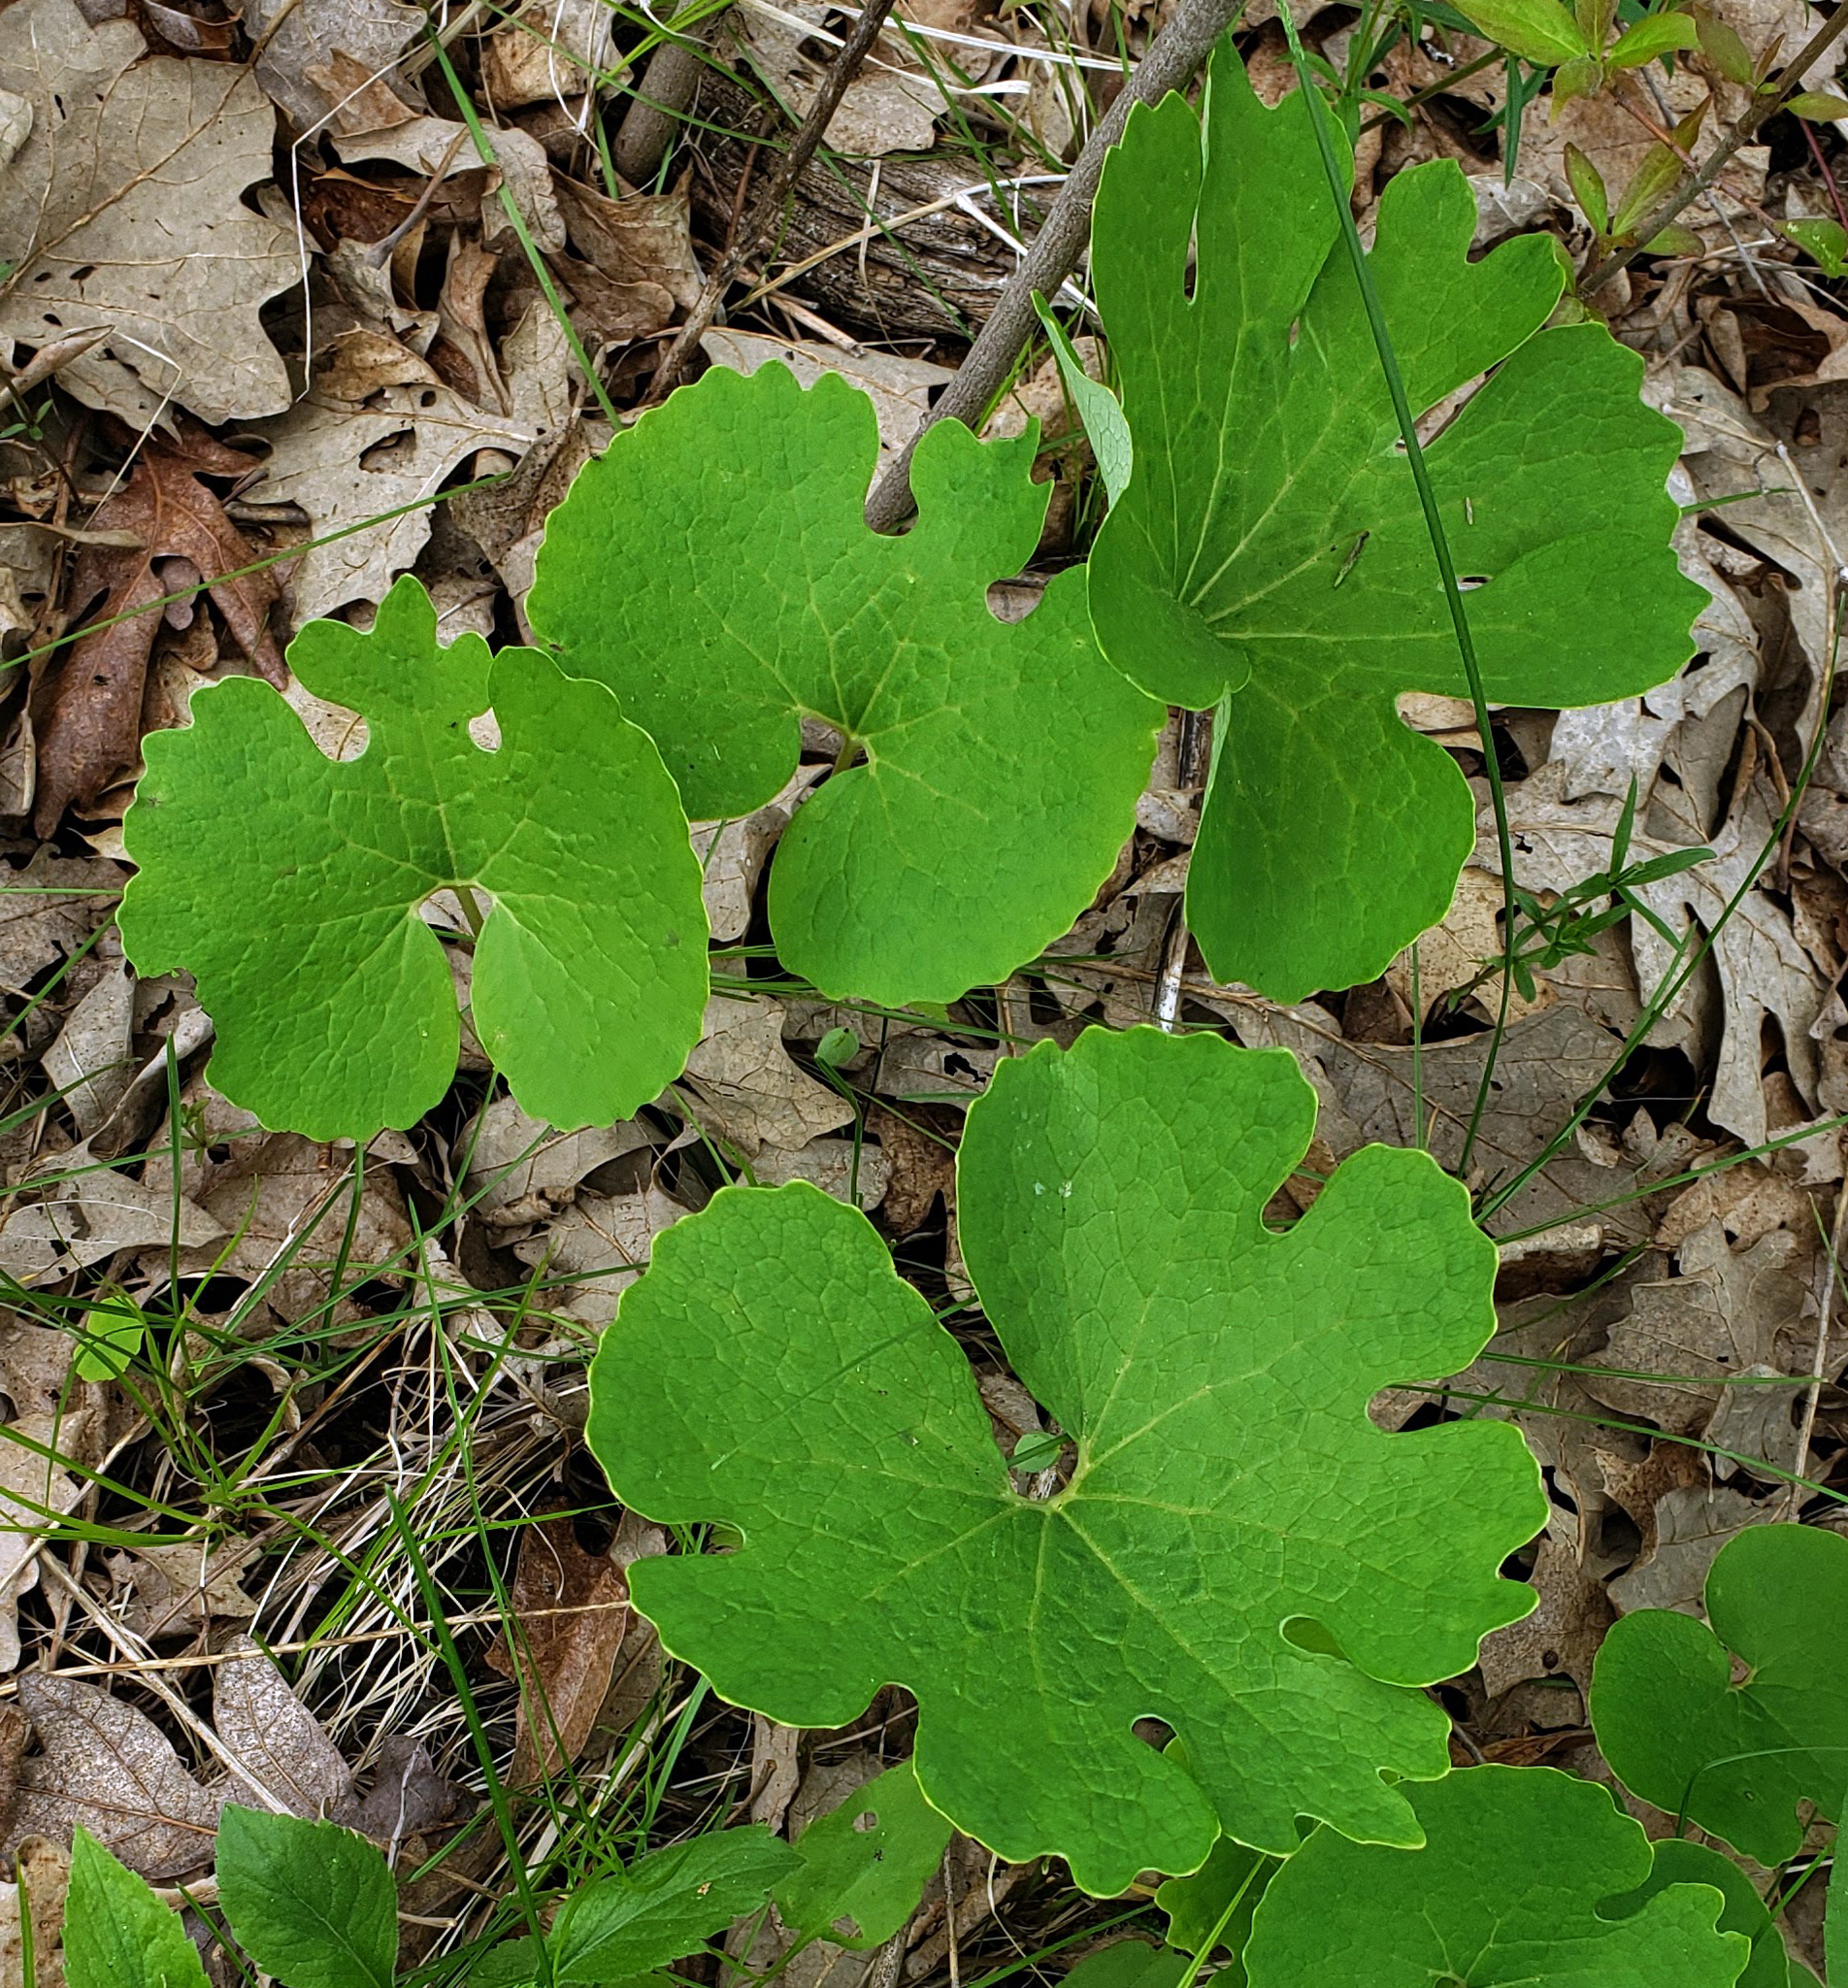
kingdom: Plantae
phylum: Tracheophyta
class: Magnoliopsida
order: Ranunculales
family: Papaveraceae
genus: Sanguinaria
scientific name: Sanguinaria canadensis
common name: Bloodroot
